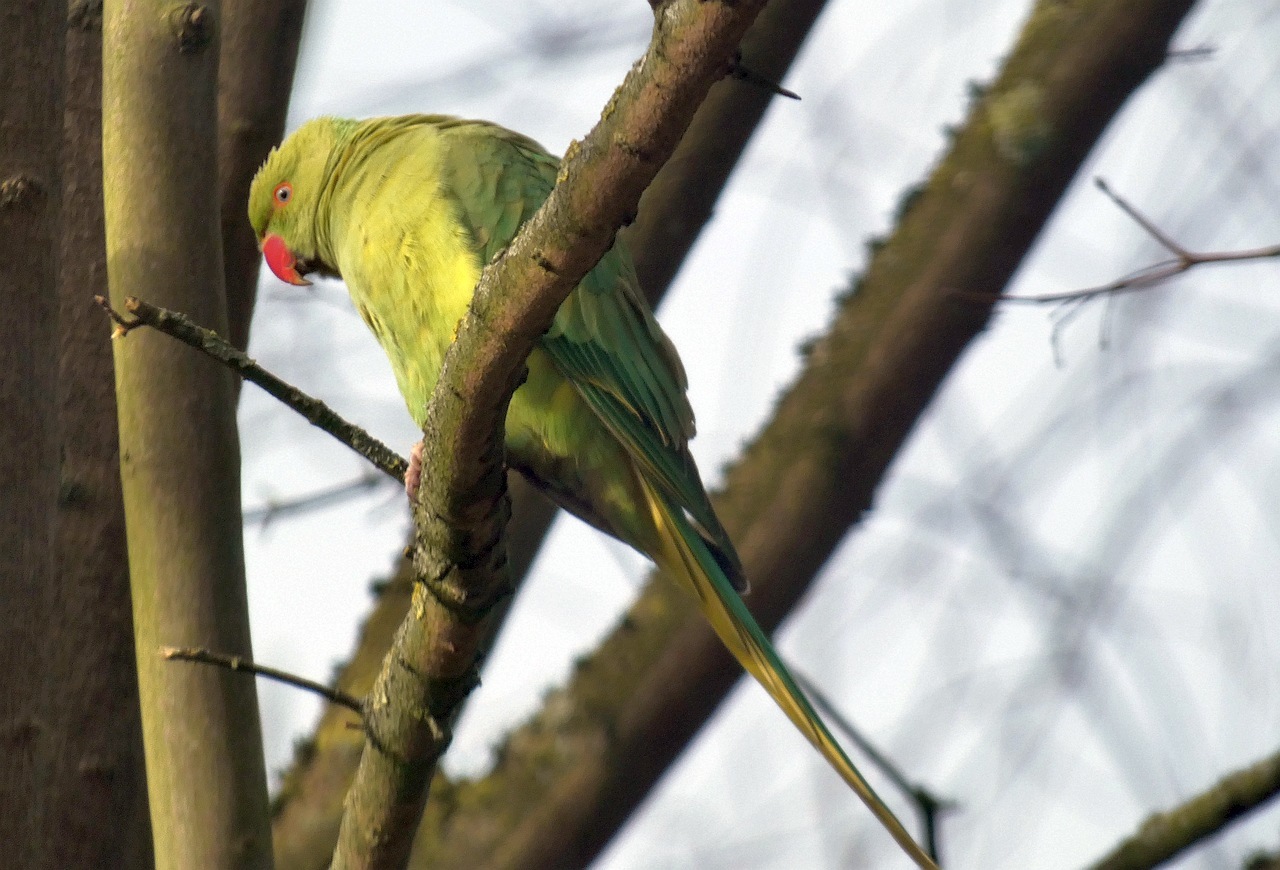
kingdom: Animalia
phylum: Chordata
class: Aves
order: Psittaciformes
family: Psittacidae
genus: Psittacula
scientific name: Psittacula krameri
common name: Rose-ringed parakeet
